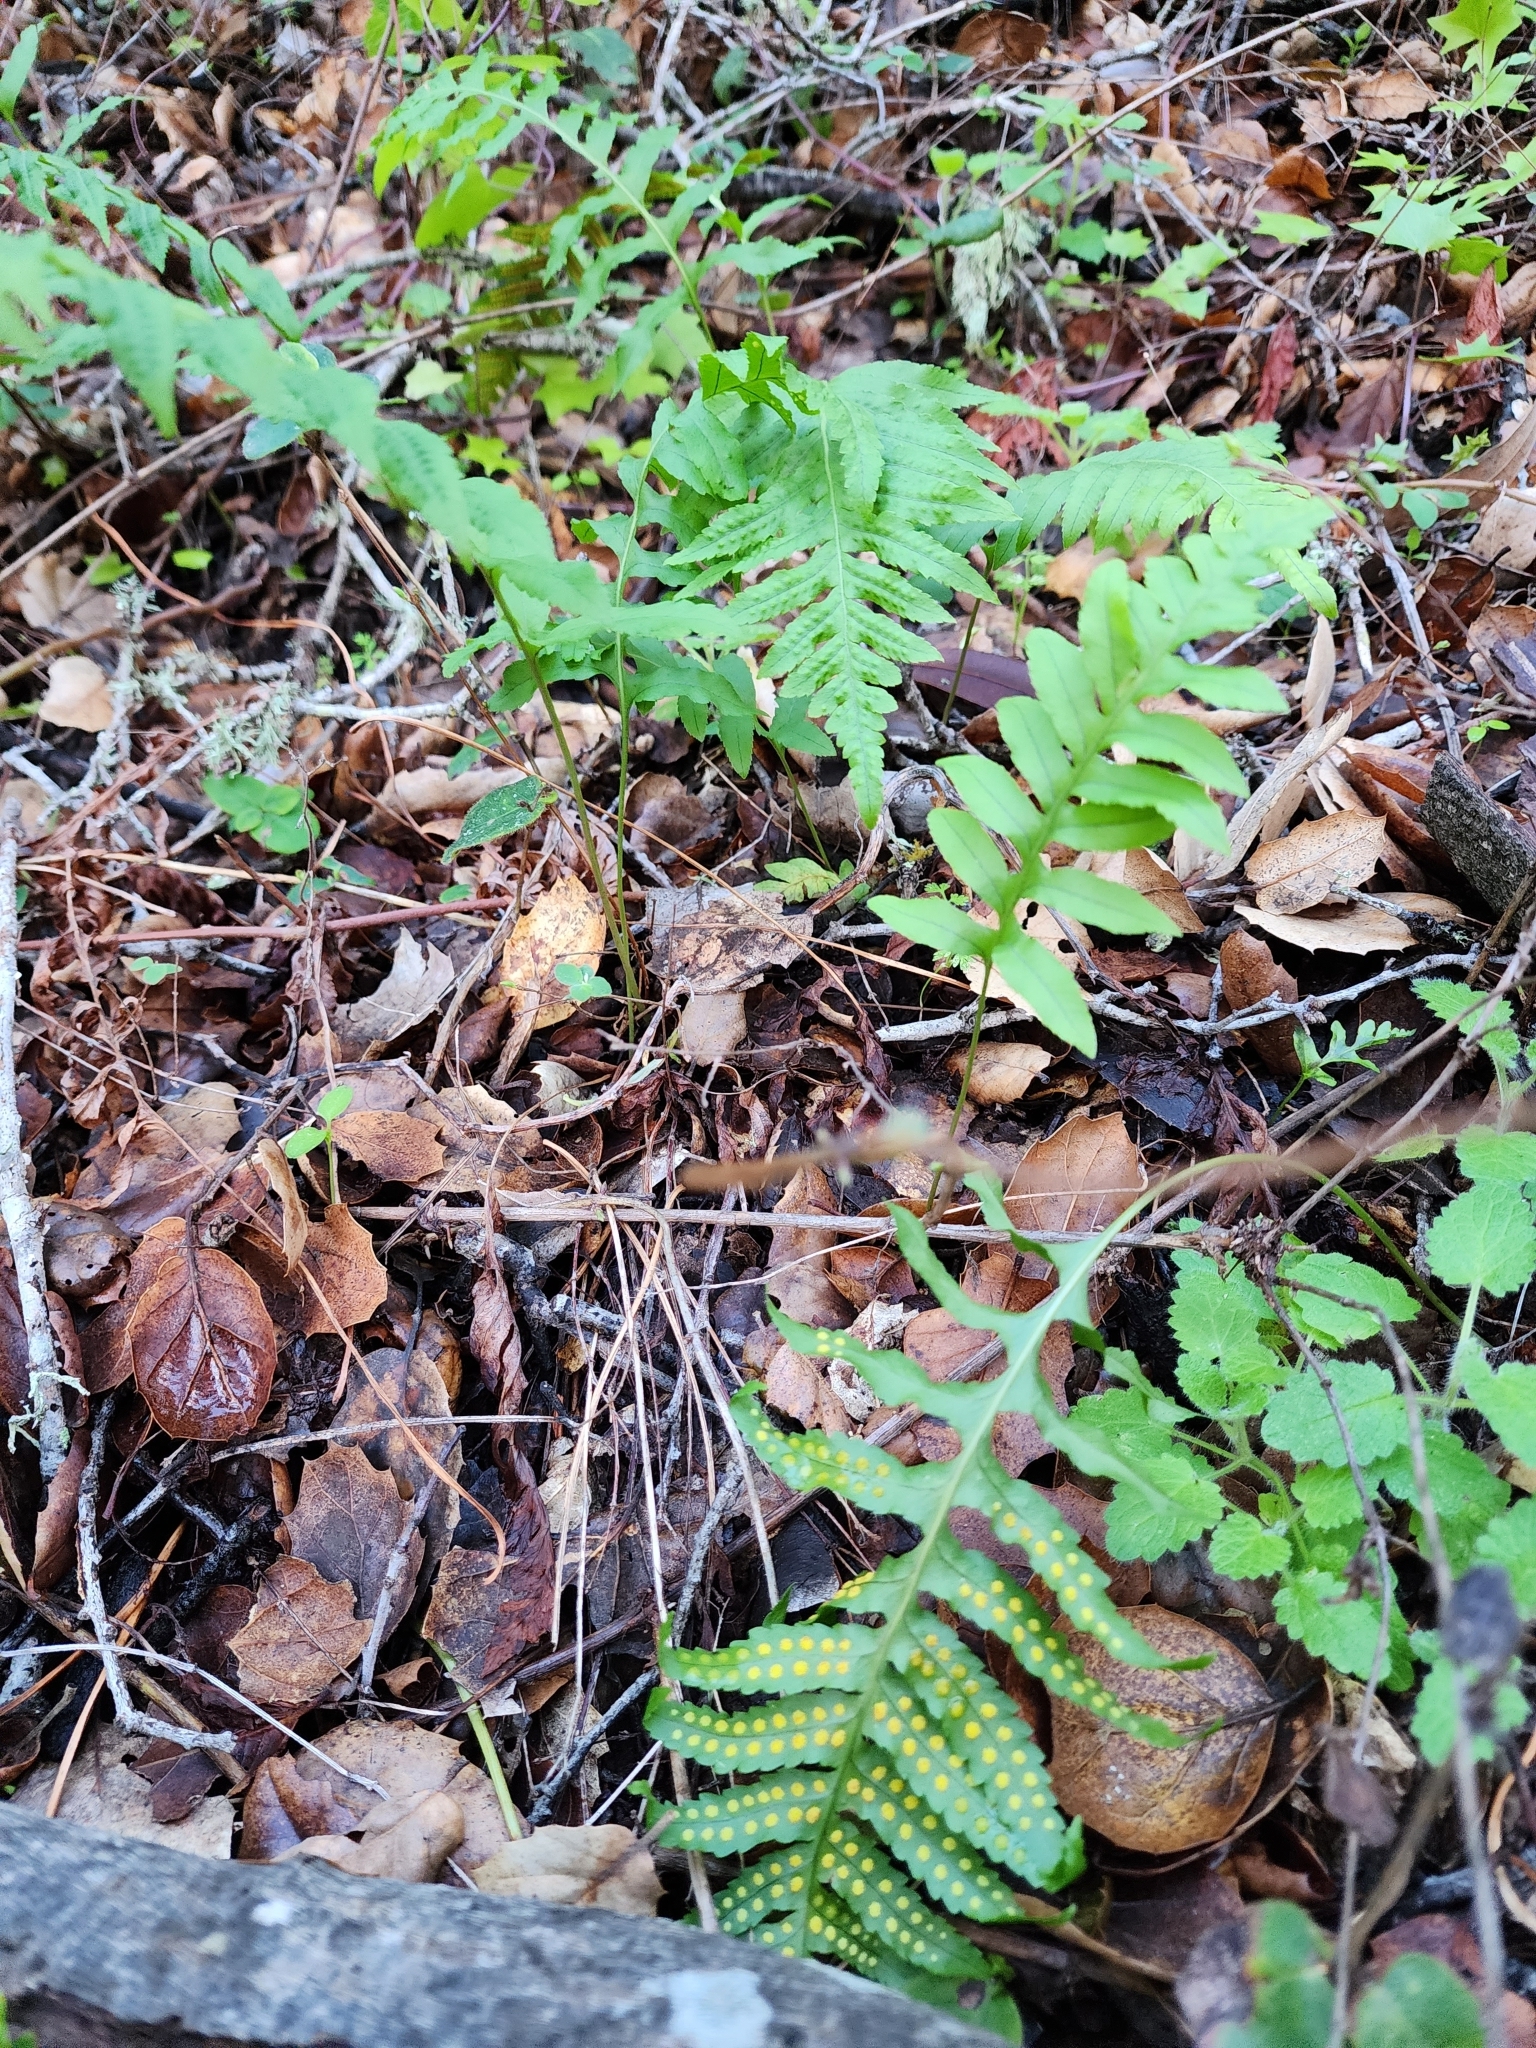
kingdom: Plantae
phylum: Tracheophyta
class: Polypodiopsida
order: Polypodiales
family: Polypodiaceae
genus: Polypodium
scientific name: Polypodium californicum
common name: California polypody
